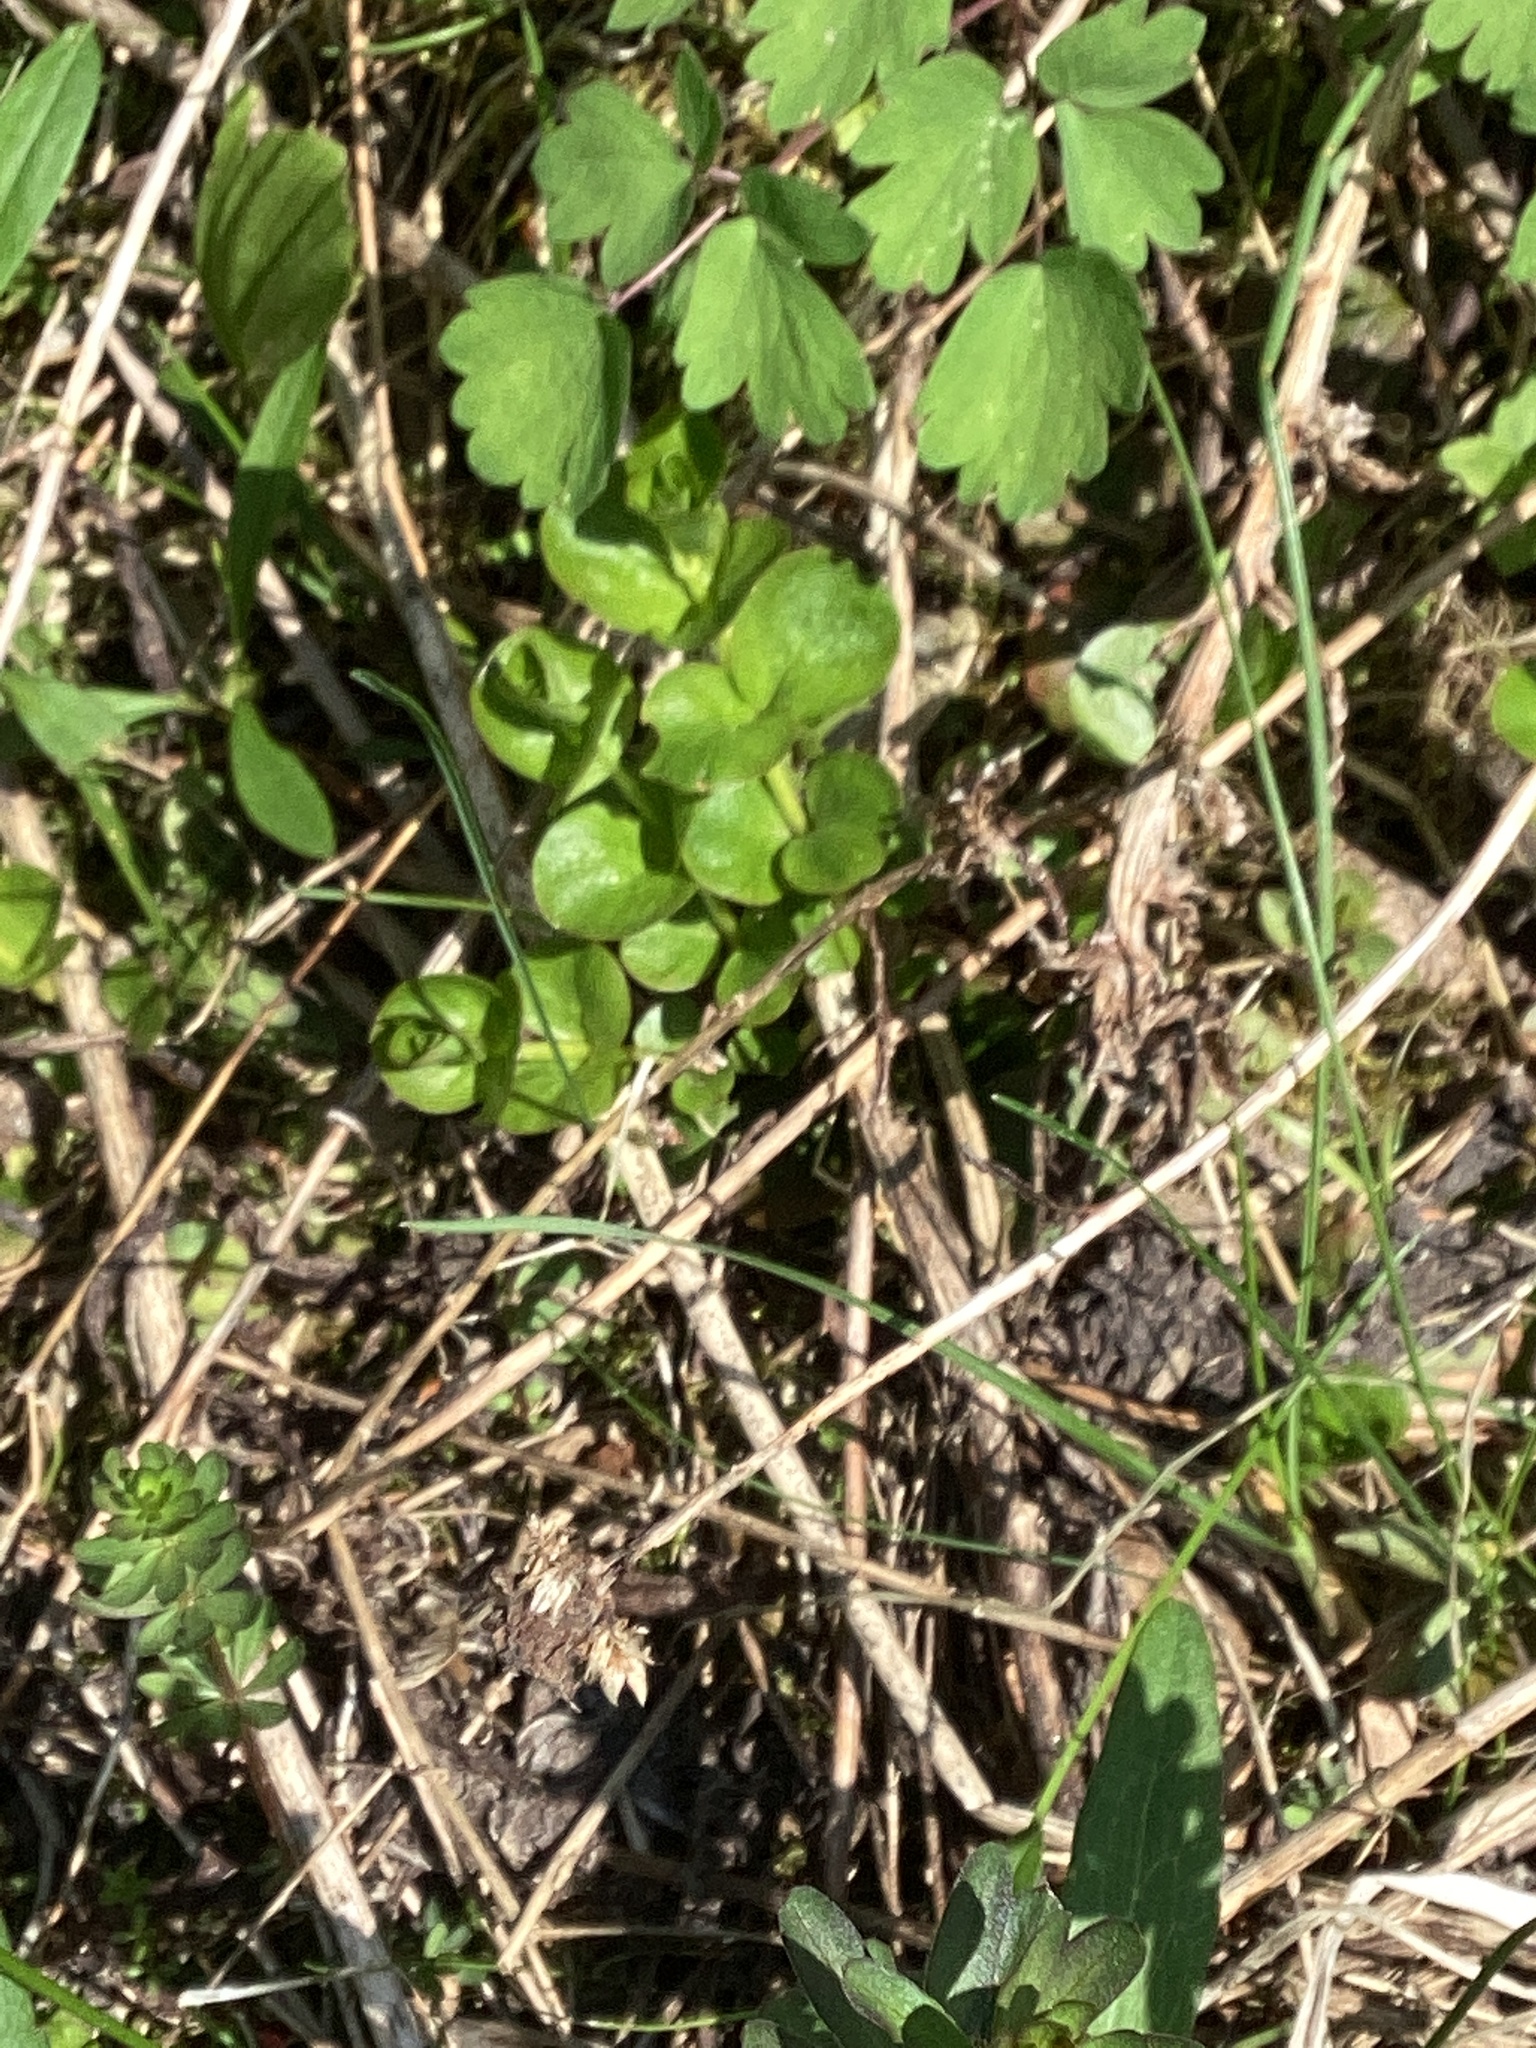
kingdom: Plantae
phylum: Tracheophyta
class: Magnoliopsida
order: Ericales
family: Primulaceae
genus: Lysimachia
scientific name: Lysimachia nummularia
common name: Moneywort
